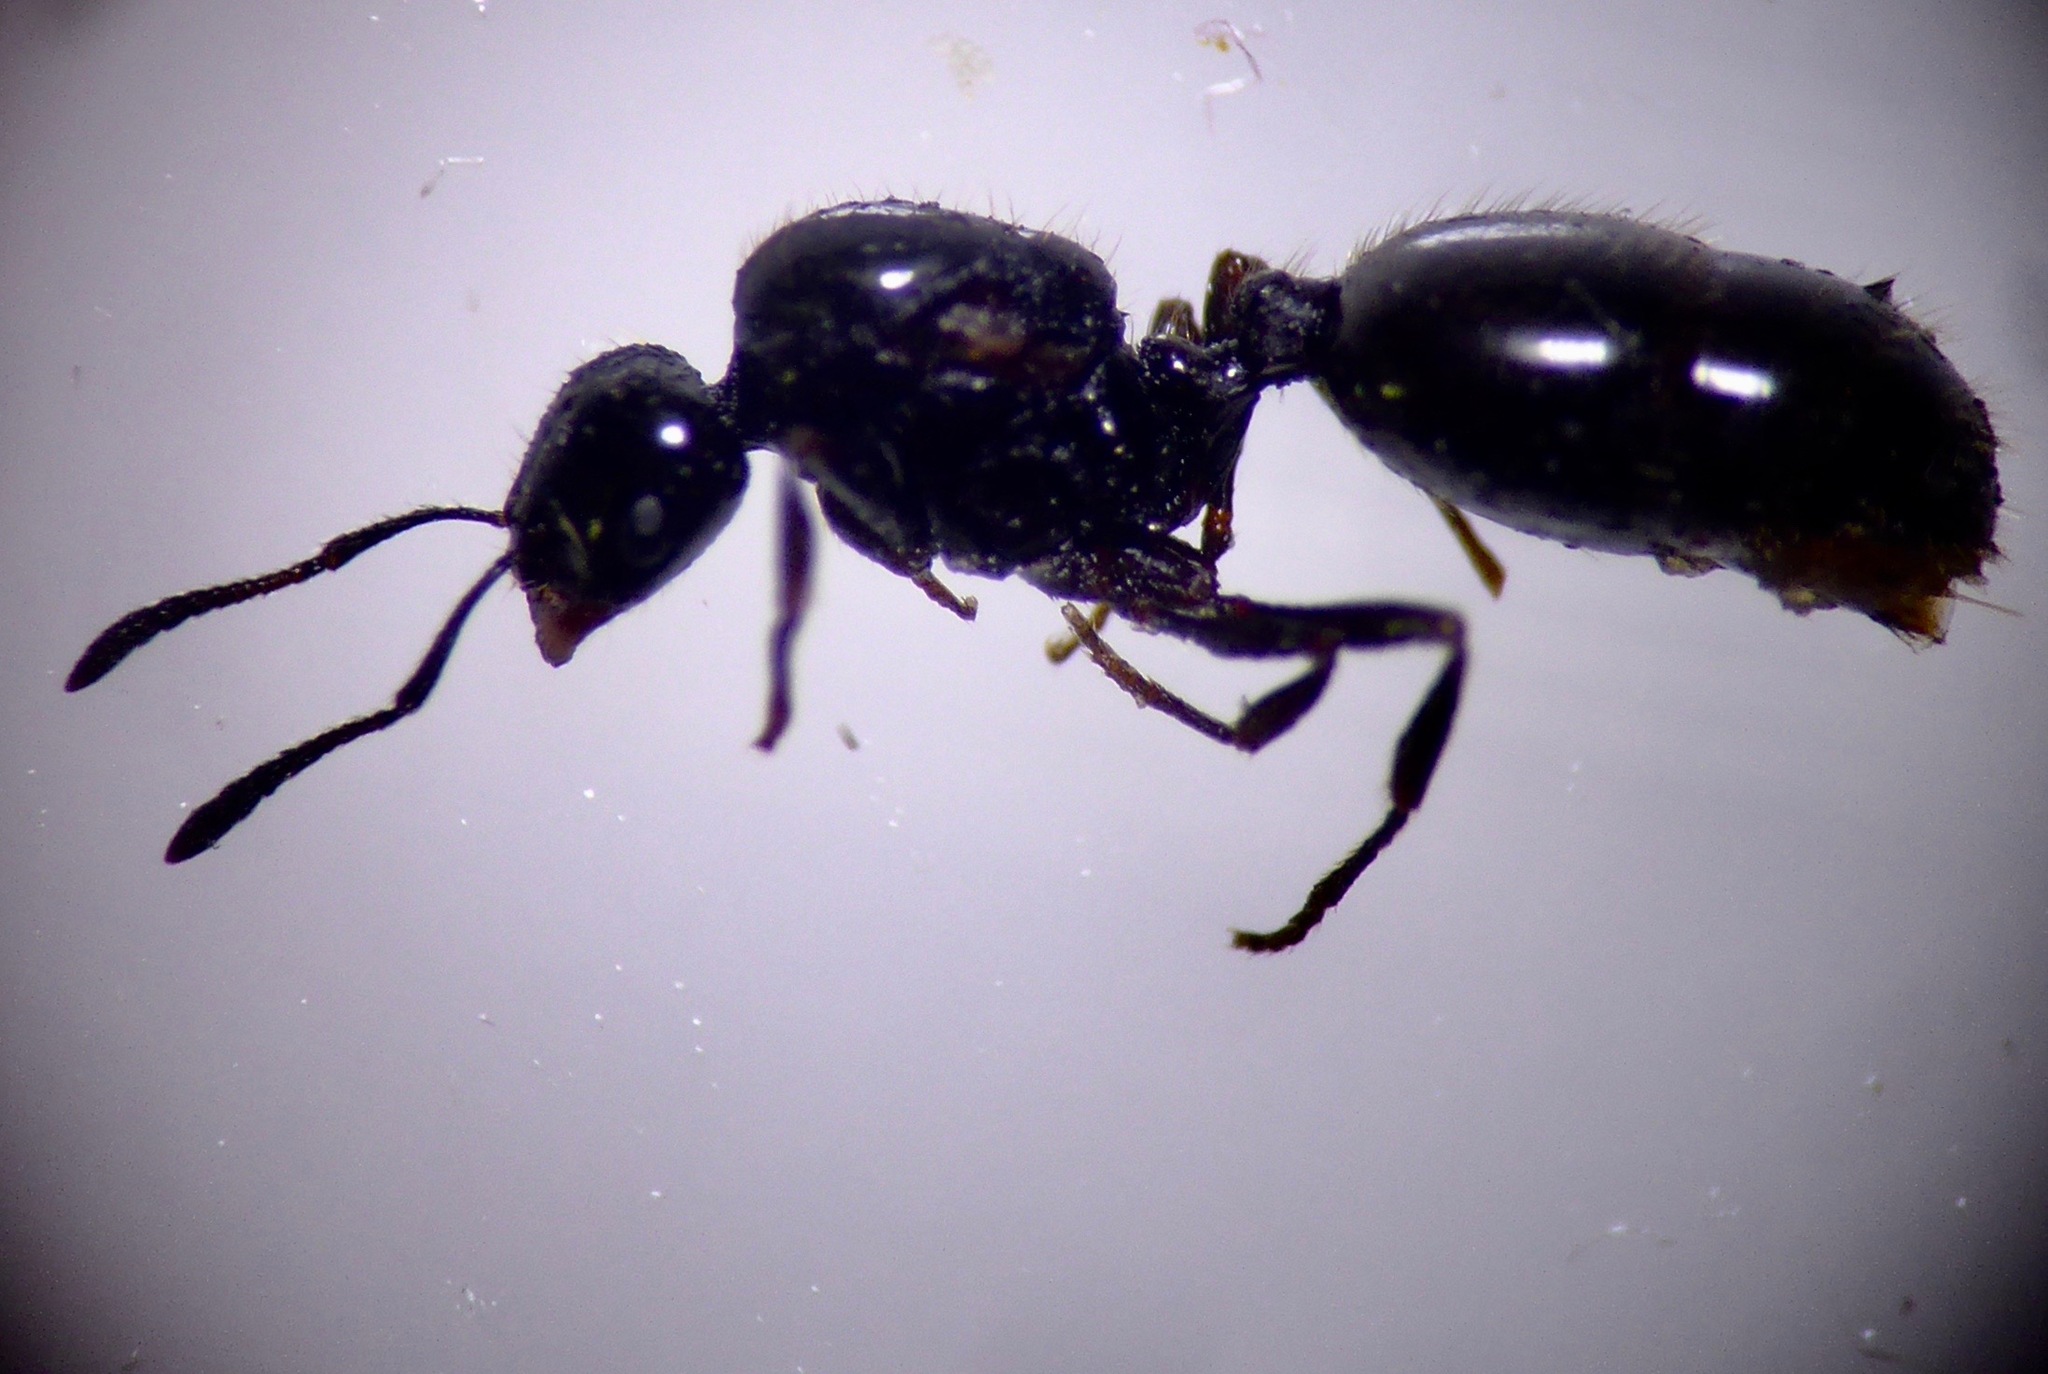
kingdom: Animalia
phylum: Arthropoda
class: Insecta
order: Hymenoptera
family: Formicidae
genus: Monomorium
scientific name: Monomorium antarcticum
